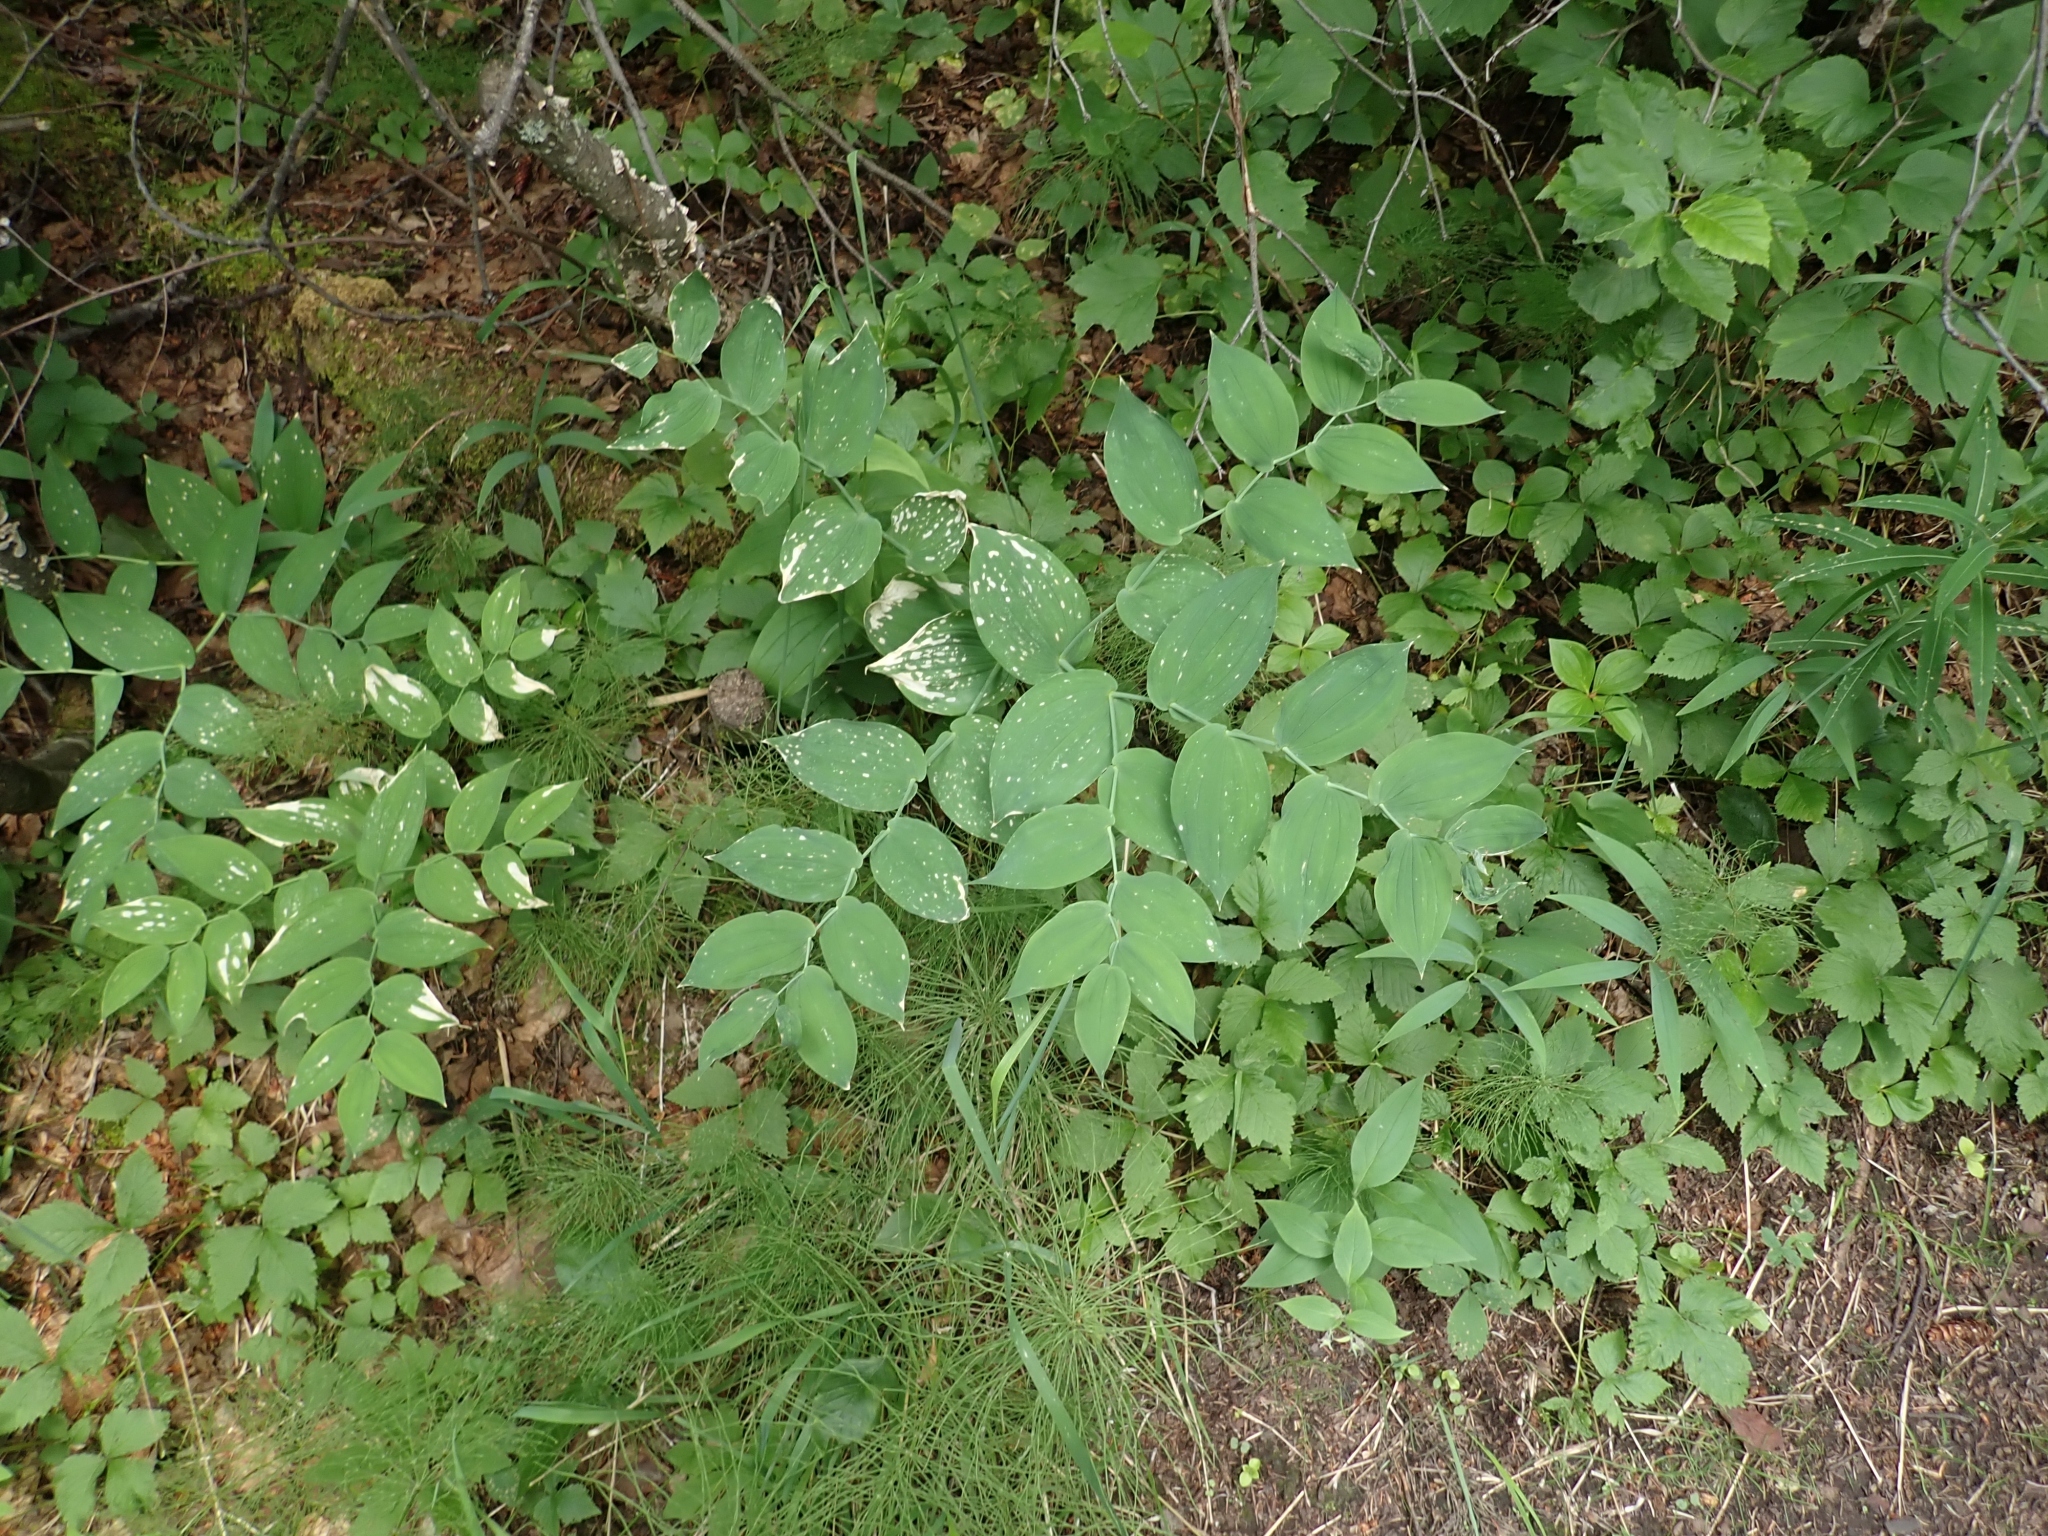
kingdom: Plantae
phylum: Tracheophyta
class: Liliopsida
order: Liliales
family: Liliaceae
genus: Streptopus
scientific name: Streptopus amplexifolius
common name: Clasp twisted stalk
